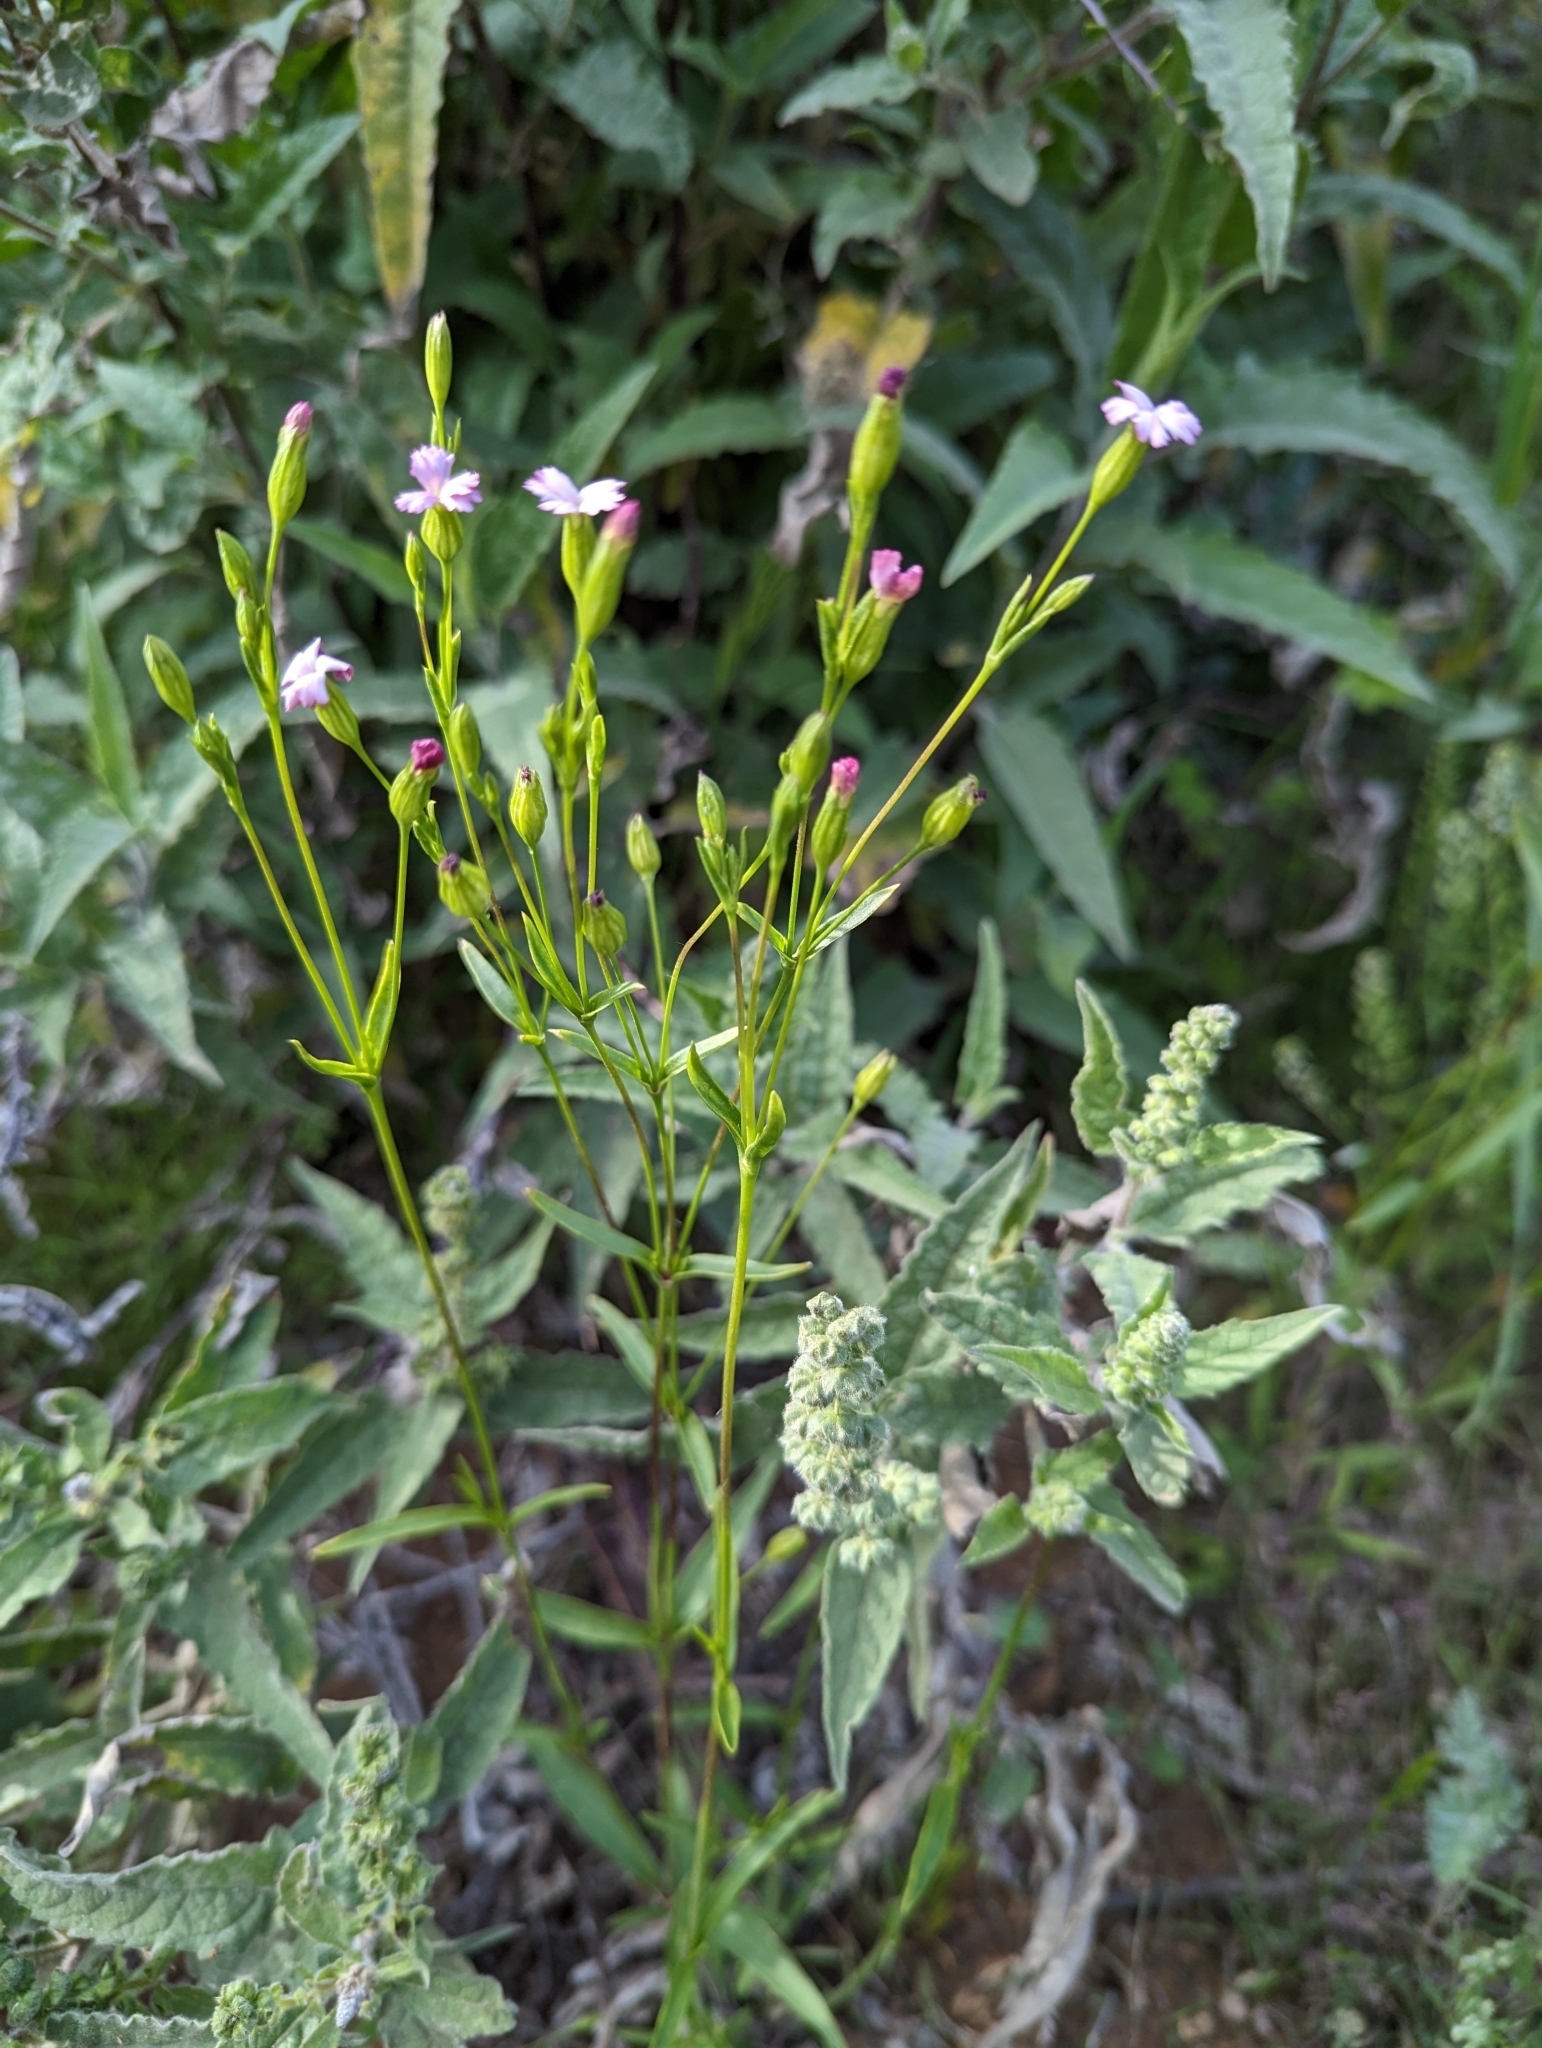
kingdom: Plantae
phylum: Tracheophyta
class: Magnoliopsida
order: Caryophyllales
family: Caryophyllaceae
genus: Silene
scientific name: Silene antirrhina
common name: Sleepy catchfly
